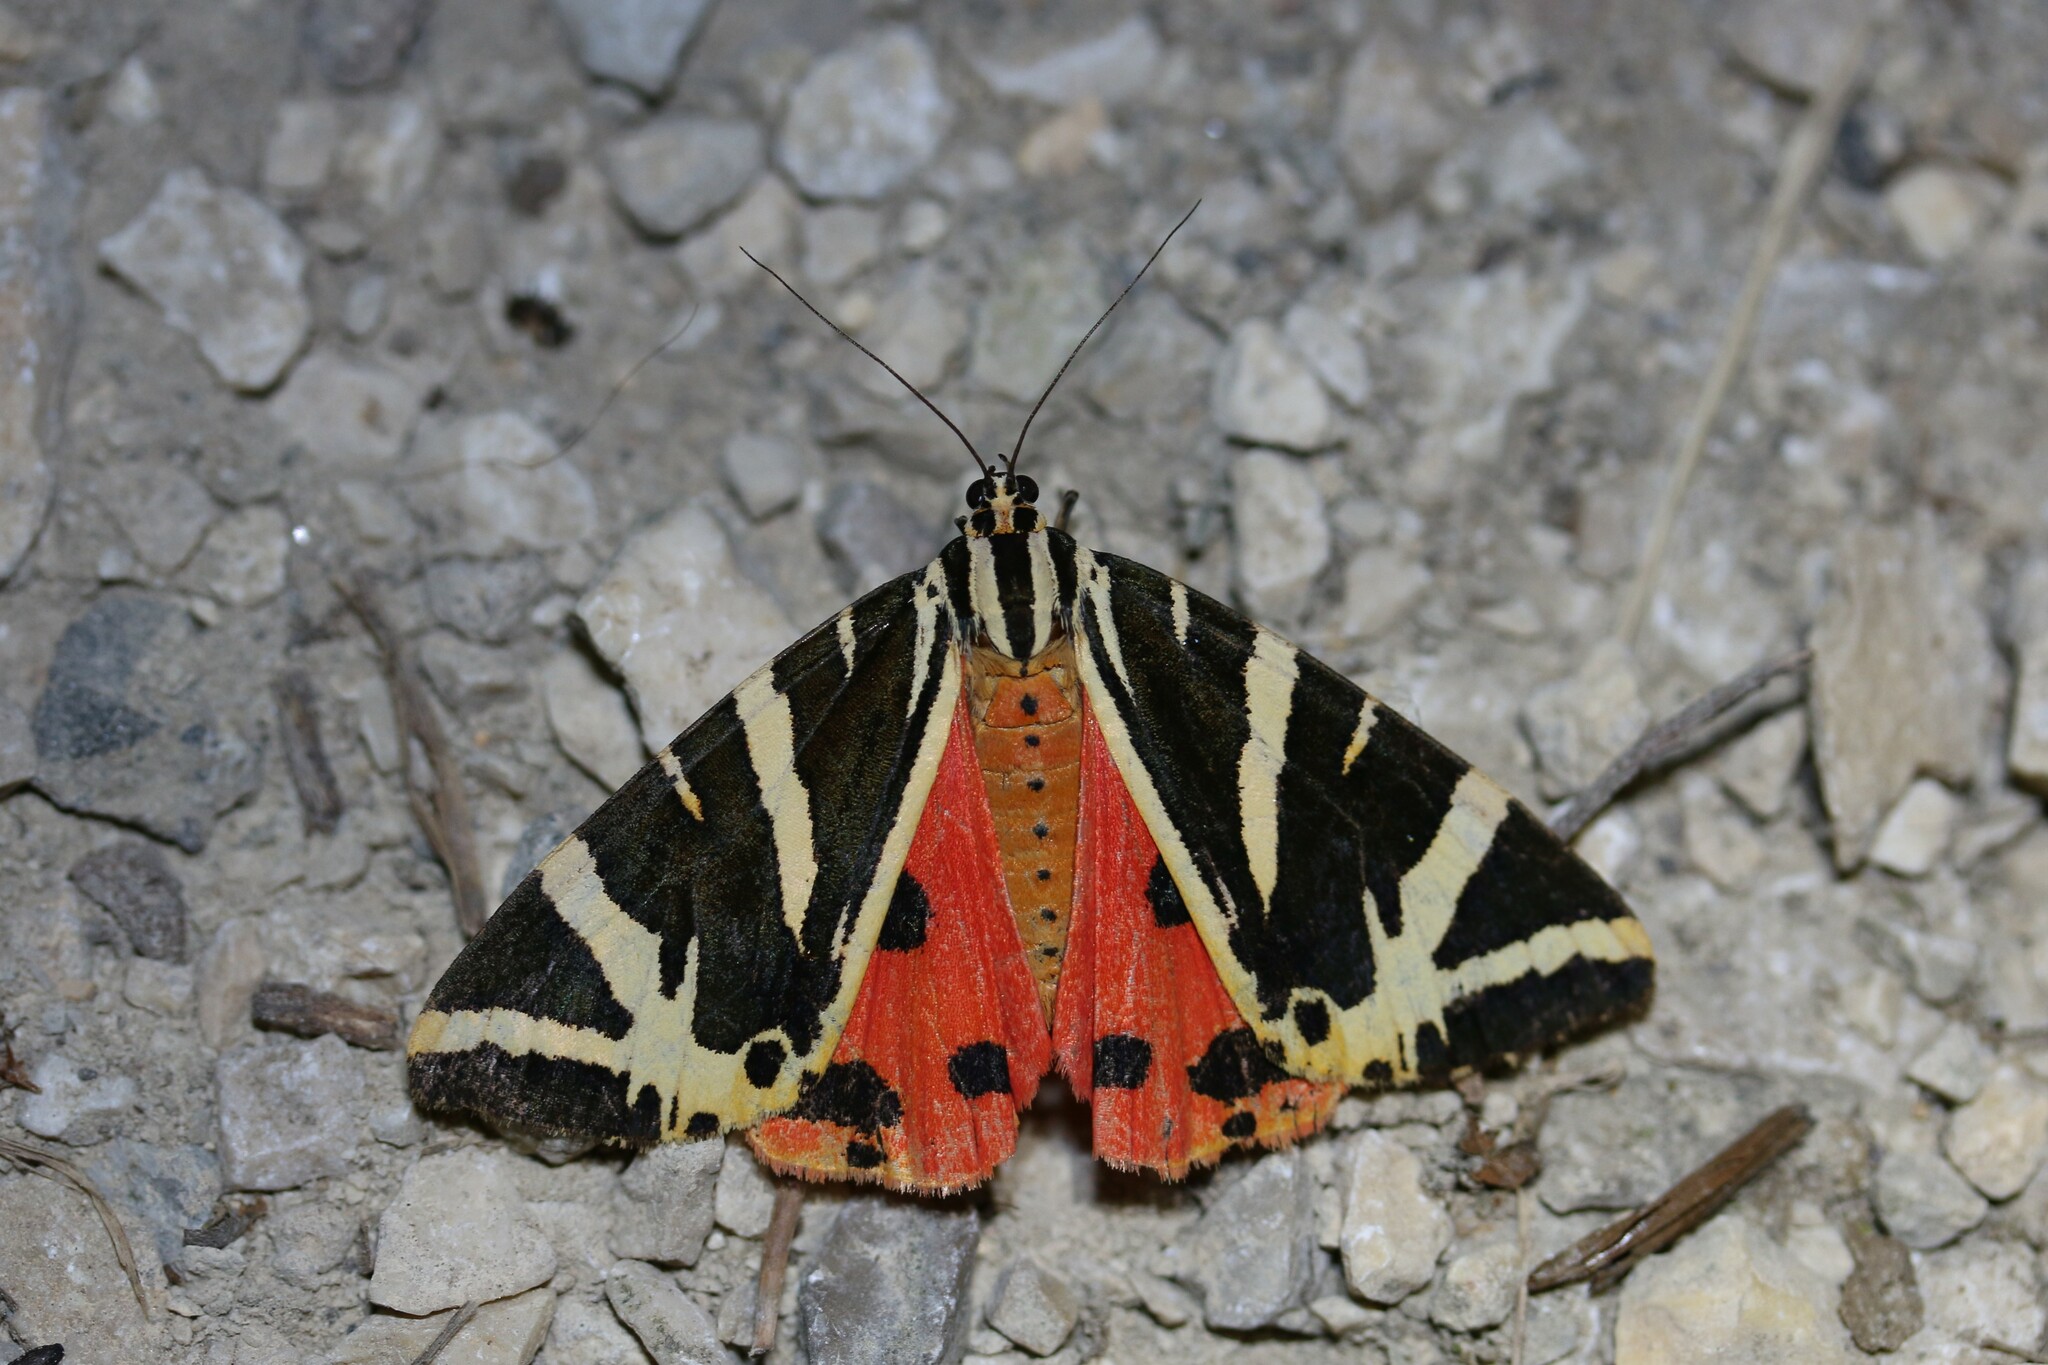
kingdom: Animalia
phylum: Arthropoda
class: Insecta
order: Lepidoptera
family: Erebidae
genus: Euplagia
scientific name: Euplagia quadripunctaria
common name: Jersey tiger
